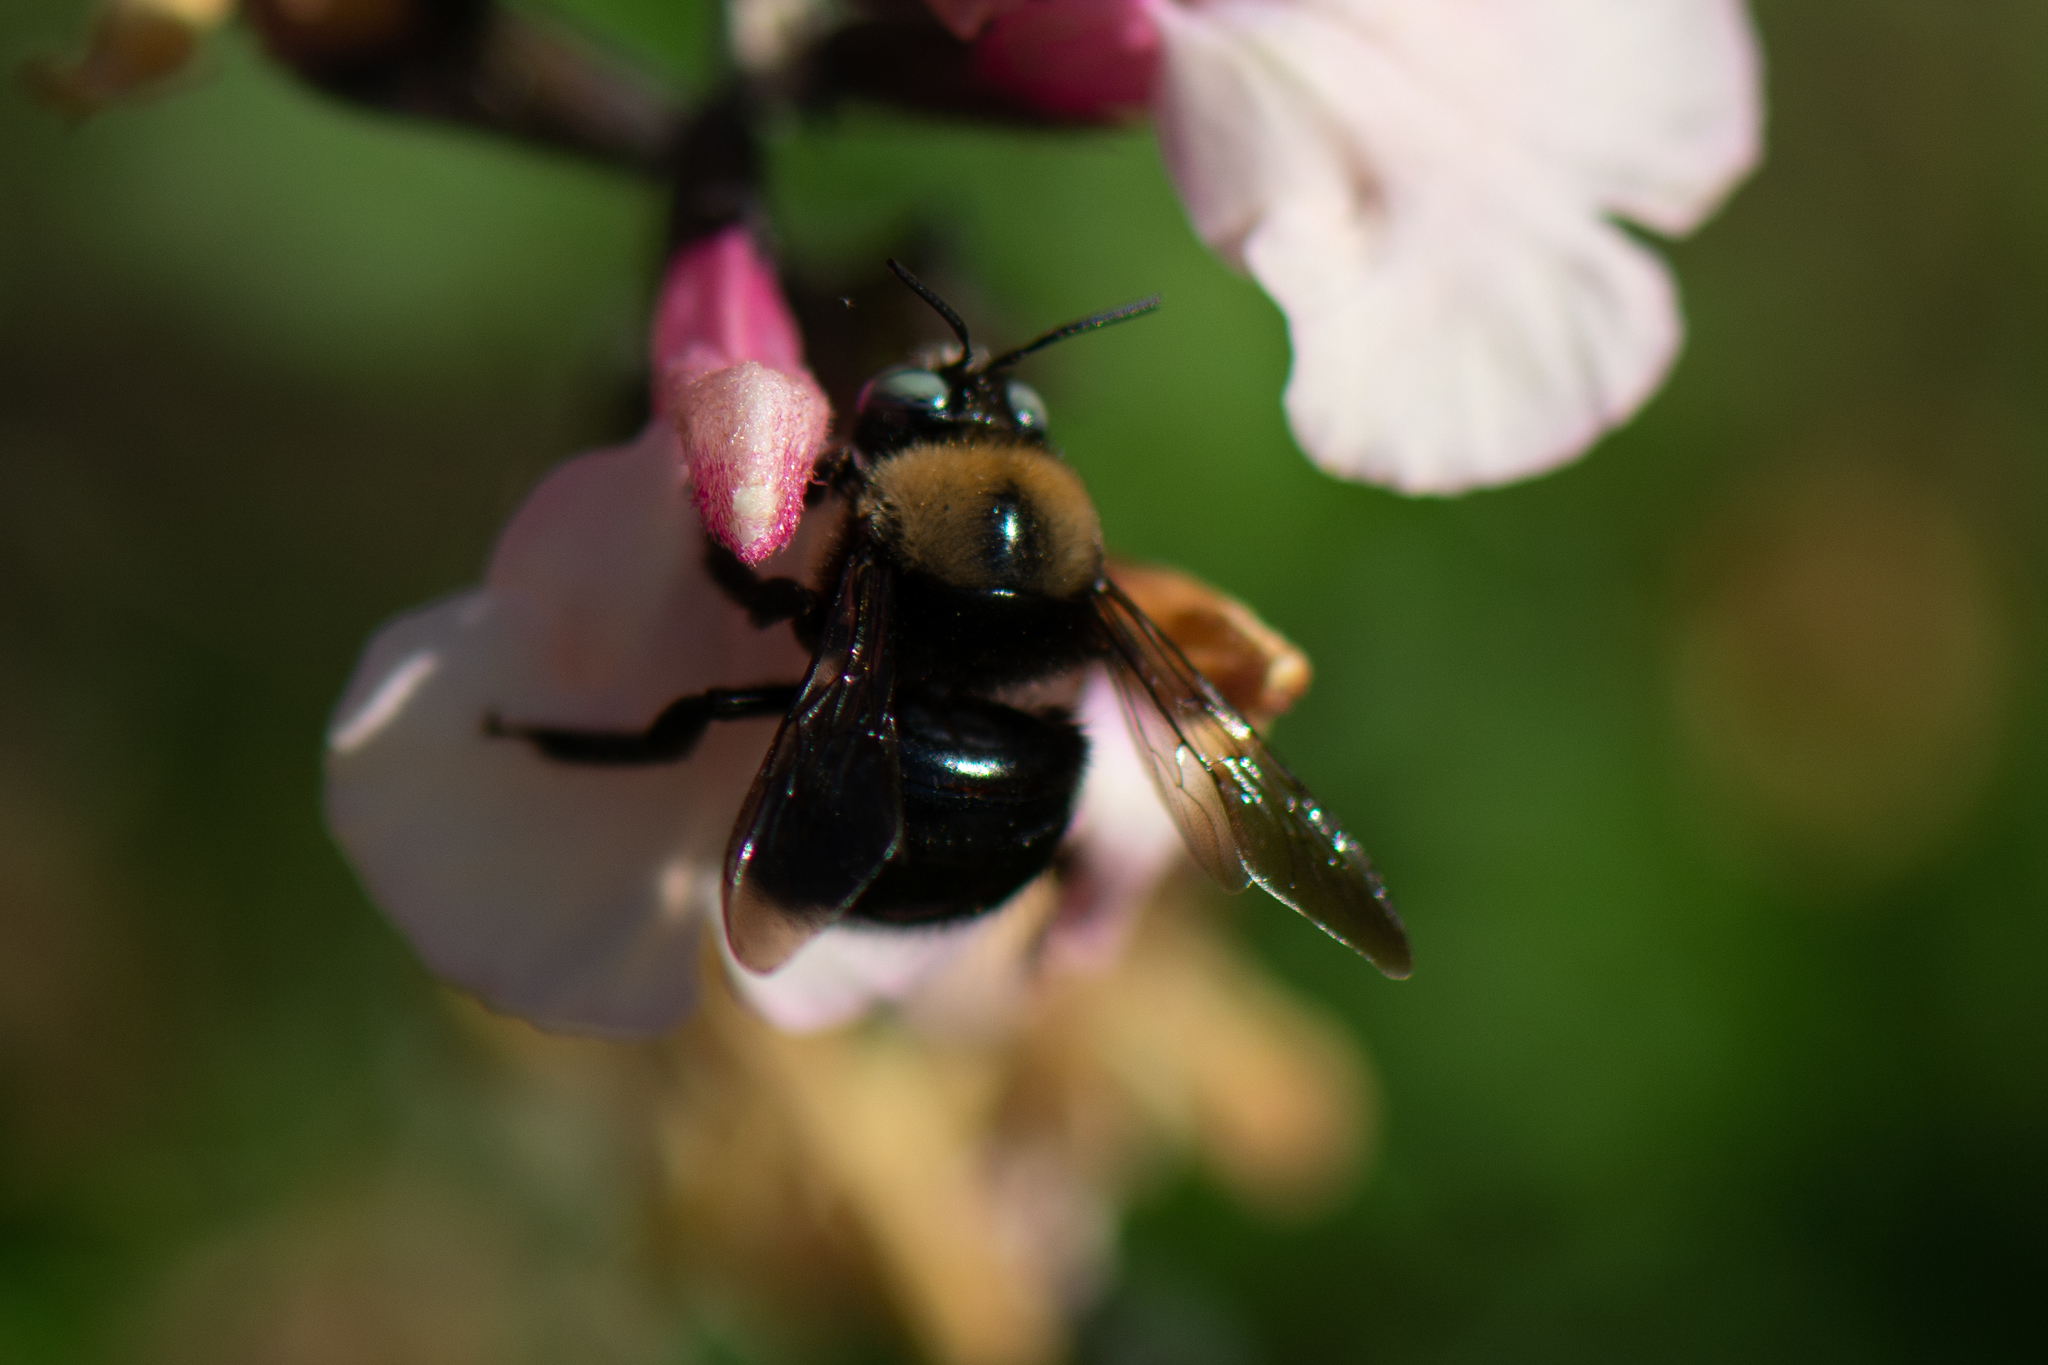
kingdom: Animalia
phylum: Arthropoda
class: Insecta
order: Hymenoptera
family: Apidae
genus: Xylocopa
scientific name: Xylocopa tabaniformis
